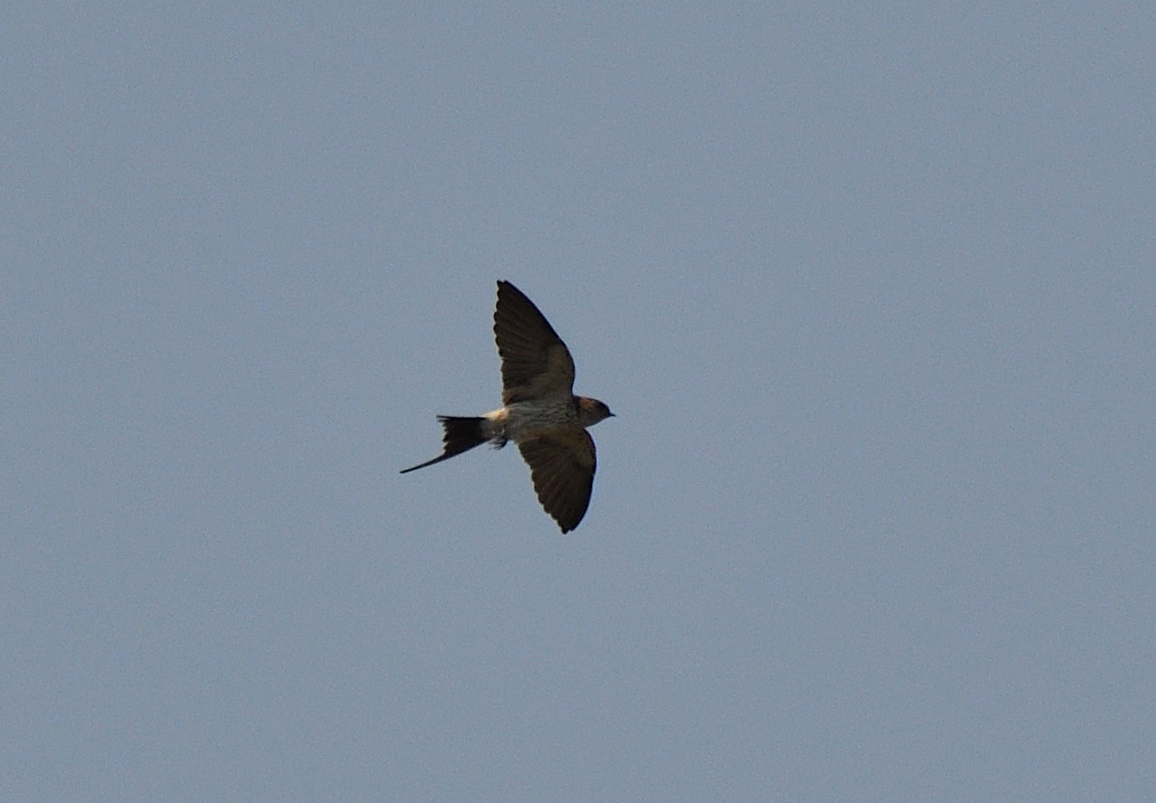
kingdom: Animalia
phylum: Chordata
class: Aves
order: Passeriformes
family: Hirundinidae
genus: Cecropis
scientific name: Cecropis daurica
